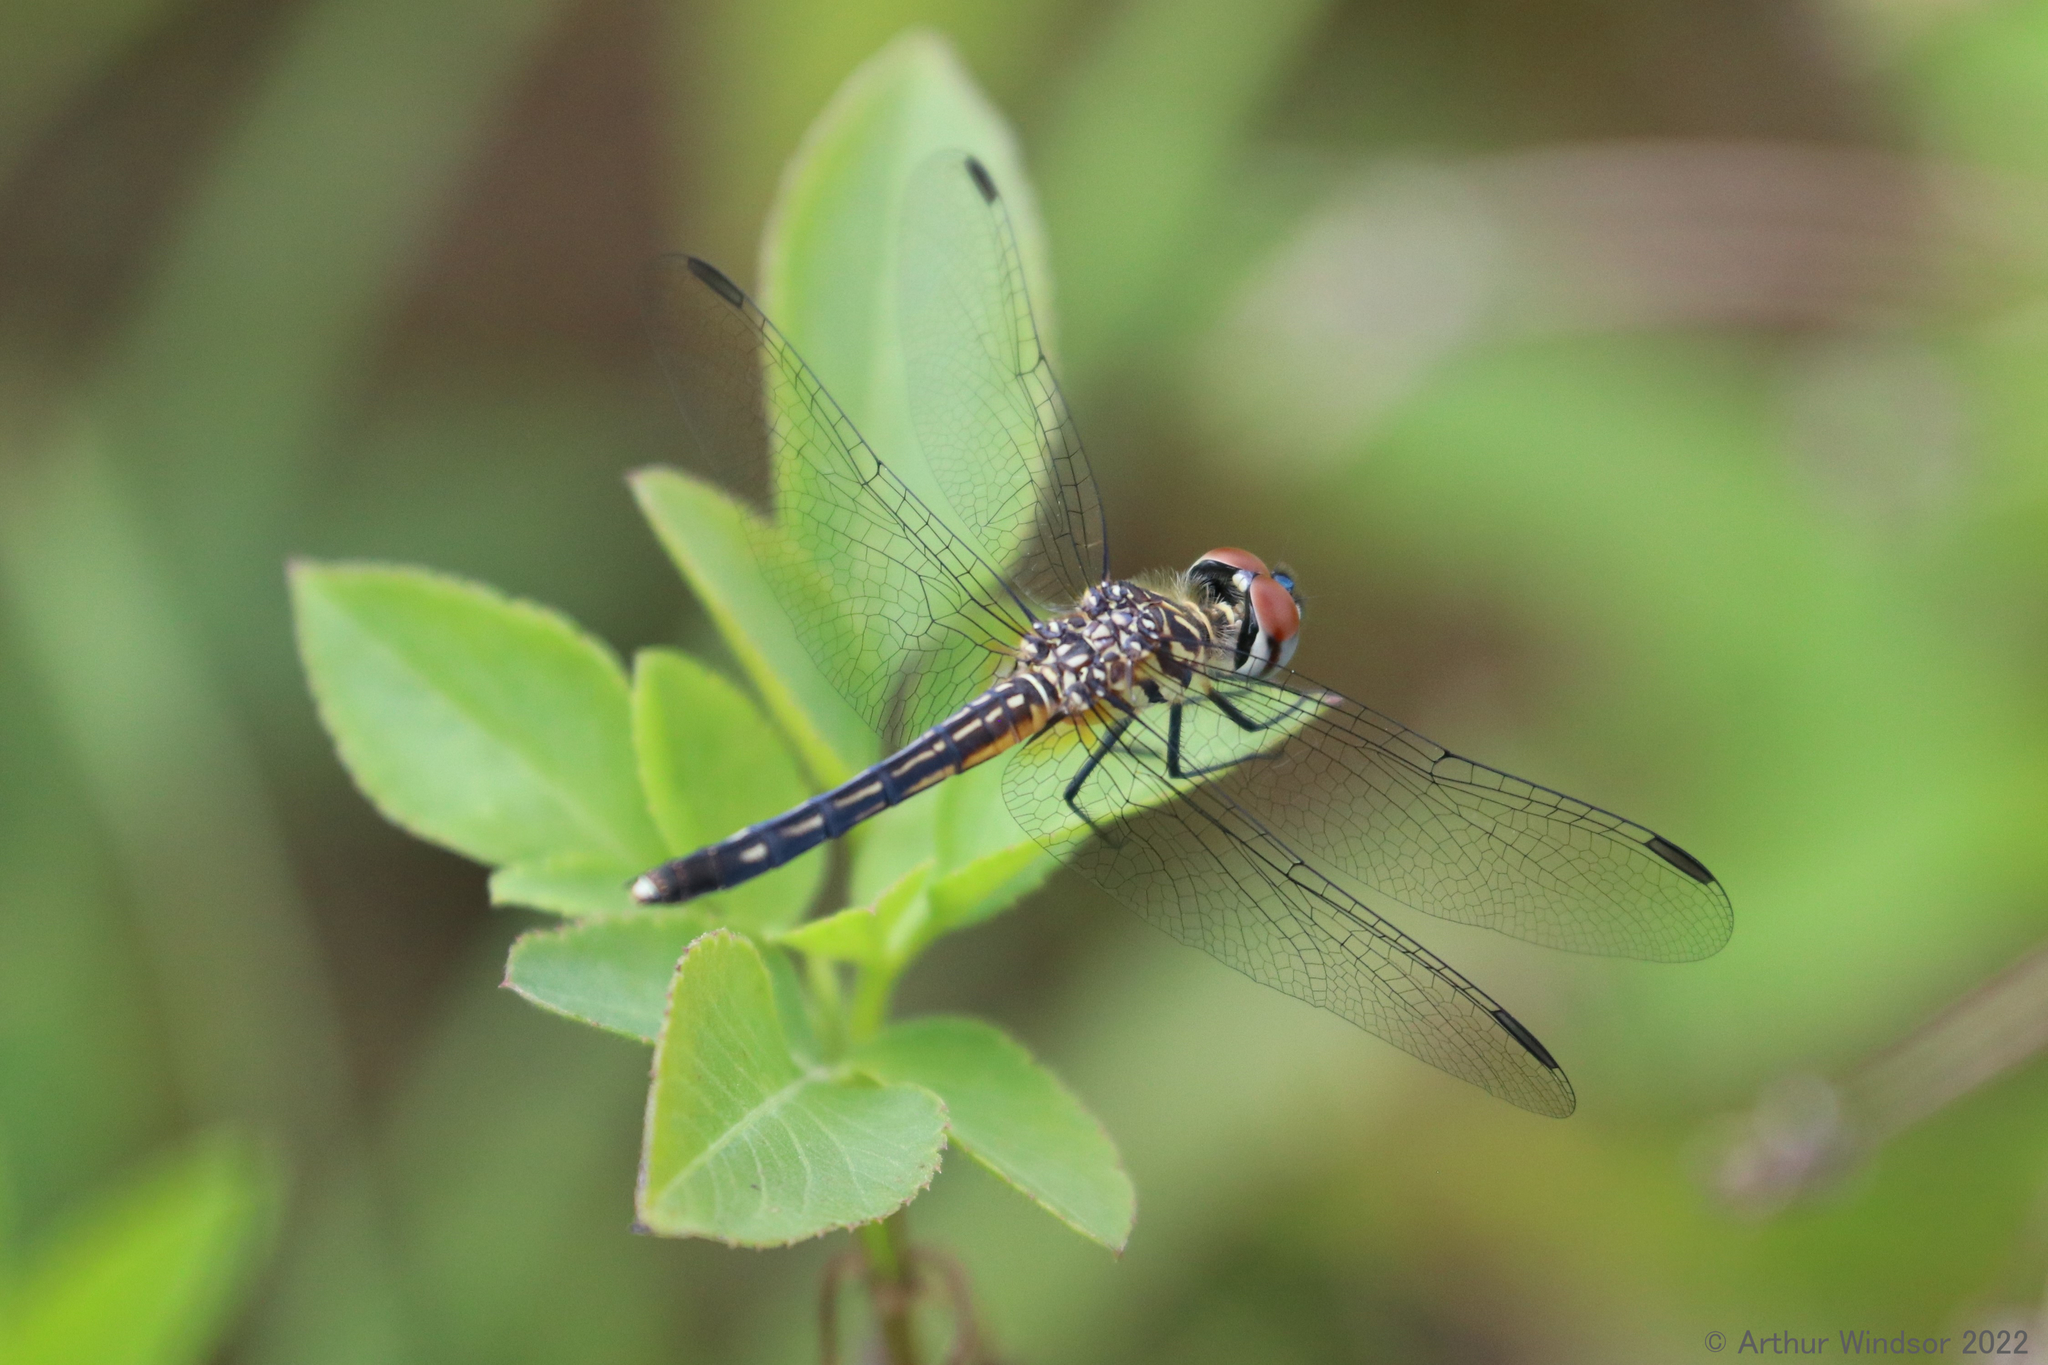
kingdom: Animalia
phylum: Arthropoda
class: Insecta
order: Odonata
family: Libellulidae
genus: Pachydiplax
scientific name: Pachydiplax longipennis
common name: Blue dasher
